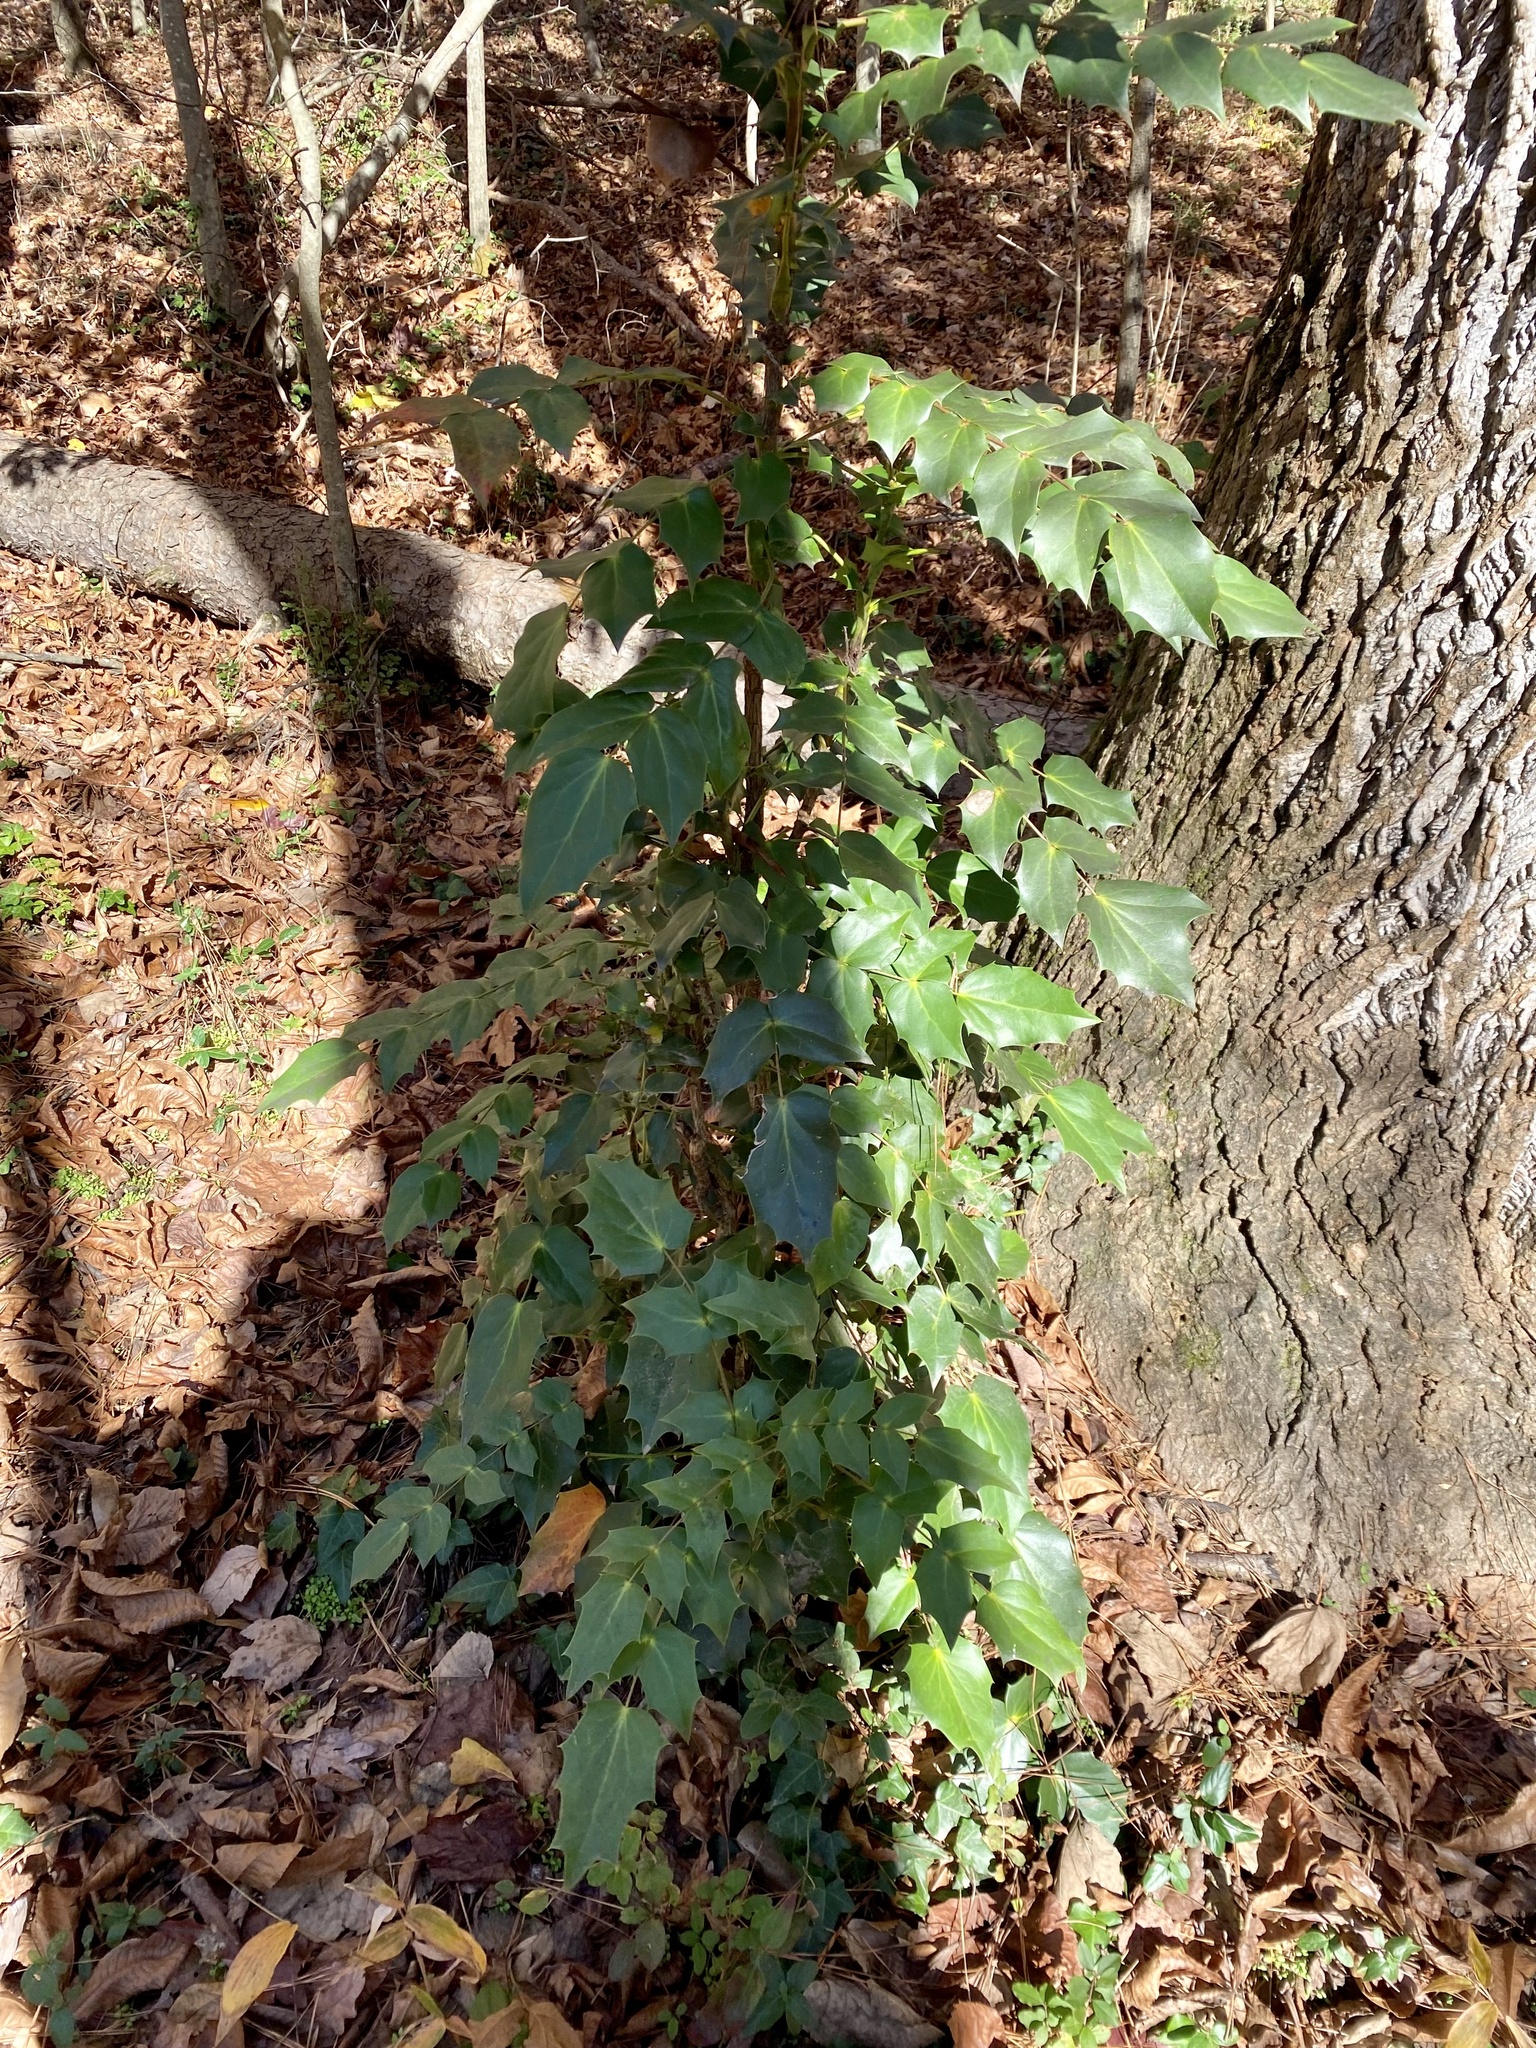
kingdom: Plantae
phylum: Tracheophyta
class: Magnoliopsida
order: Ranunculales
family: Berberidaceae
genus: Mahonia
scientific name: Mahonia bealei
